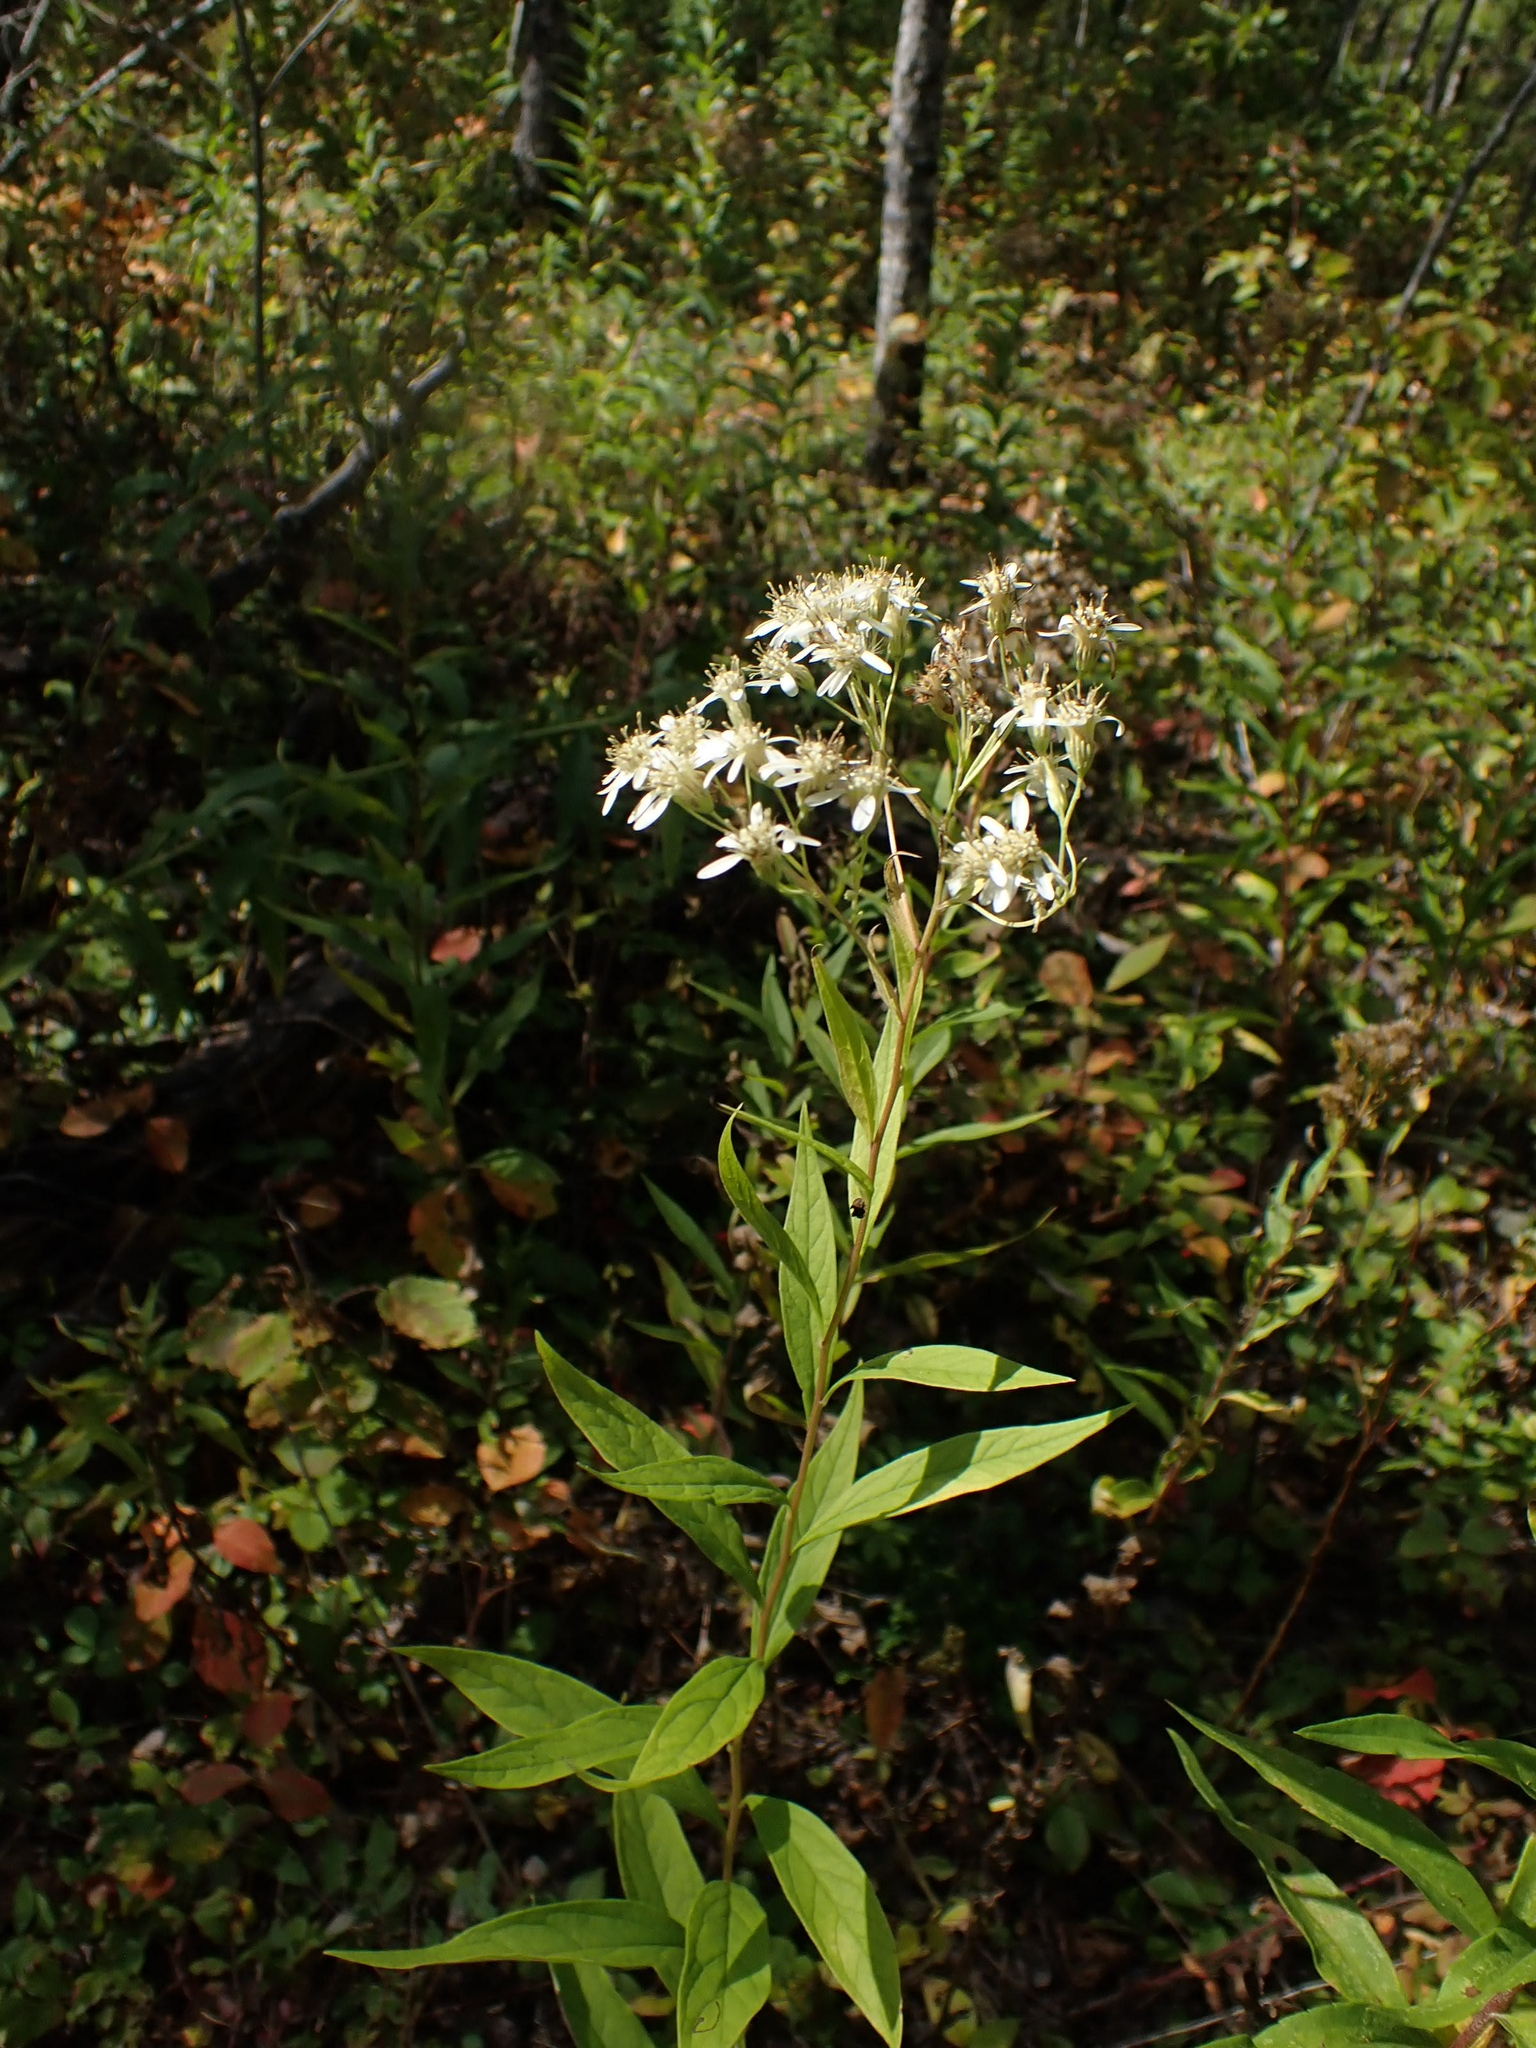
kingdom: Plantae
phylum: Tracheophyta
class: Magnoliopsida
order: Asterales
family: Asteraceae
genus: Doellingeria
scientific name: Doellingeria umbellata
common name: Flat-top white aster
